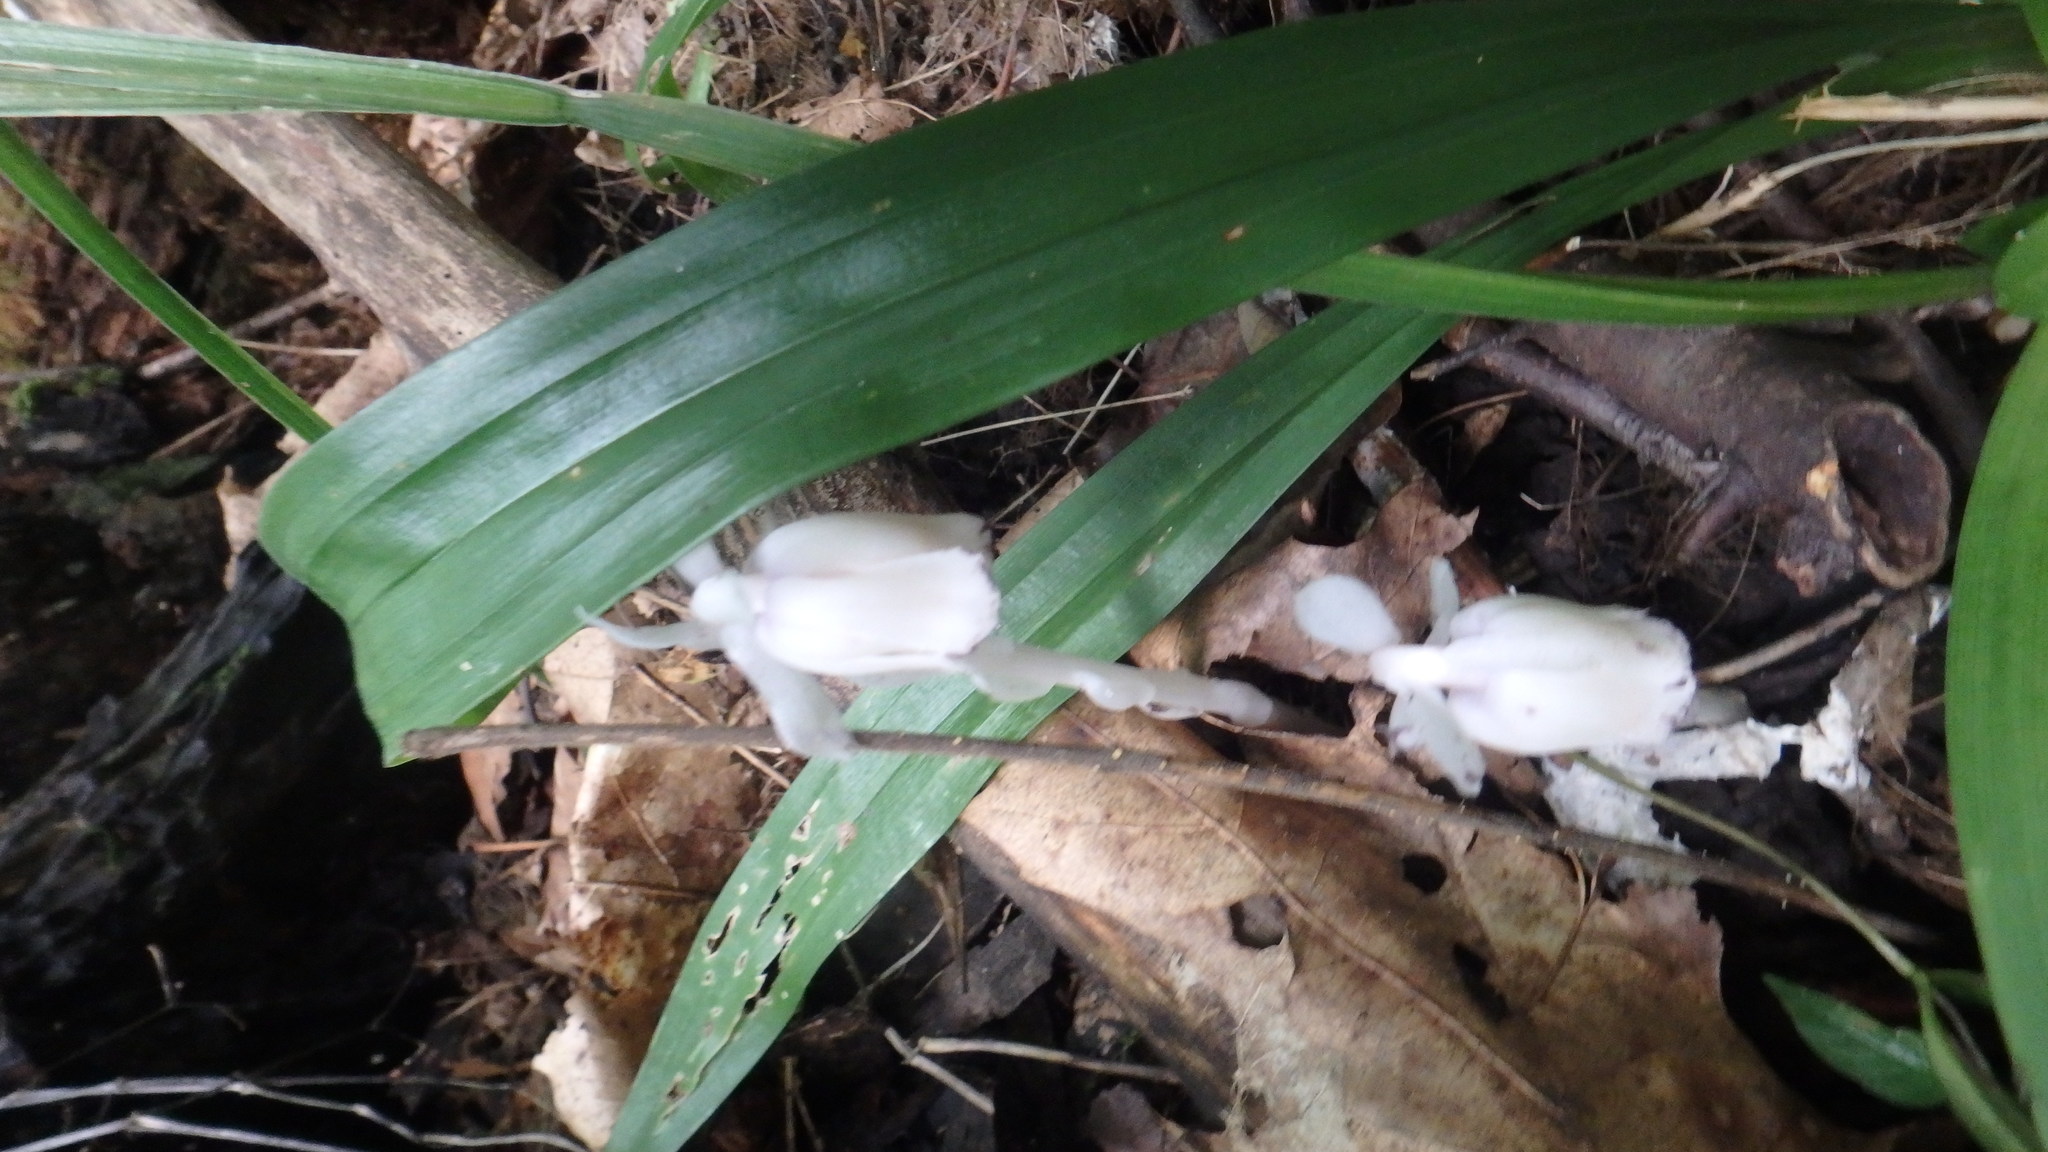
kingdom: Plantae
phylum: Tracheophyta
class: Magnoliopsida
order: Ericales
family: Ericaceae
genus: Monotropa
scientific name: Monotropa uniflora
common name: Convulsion root
